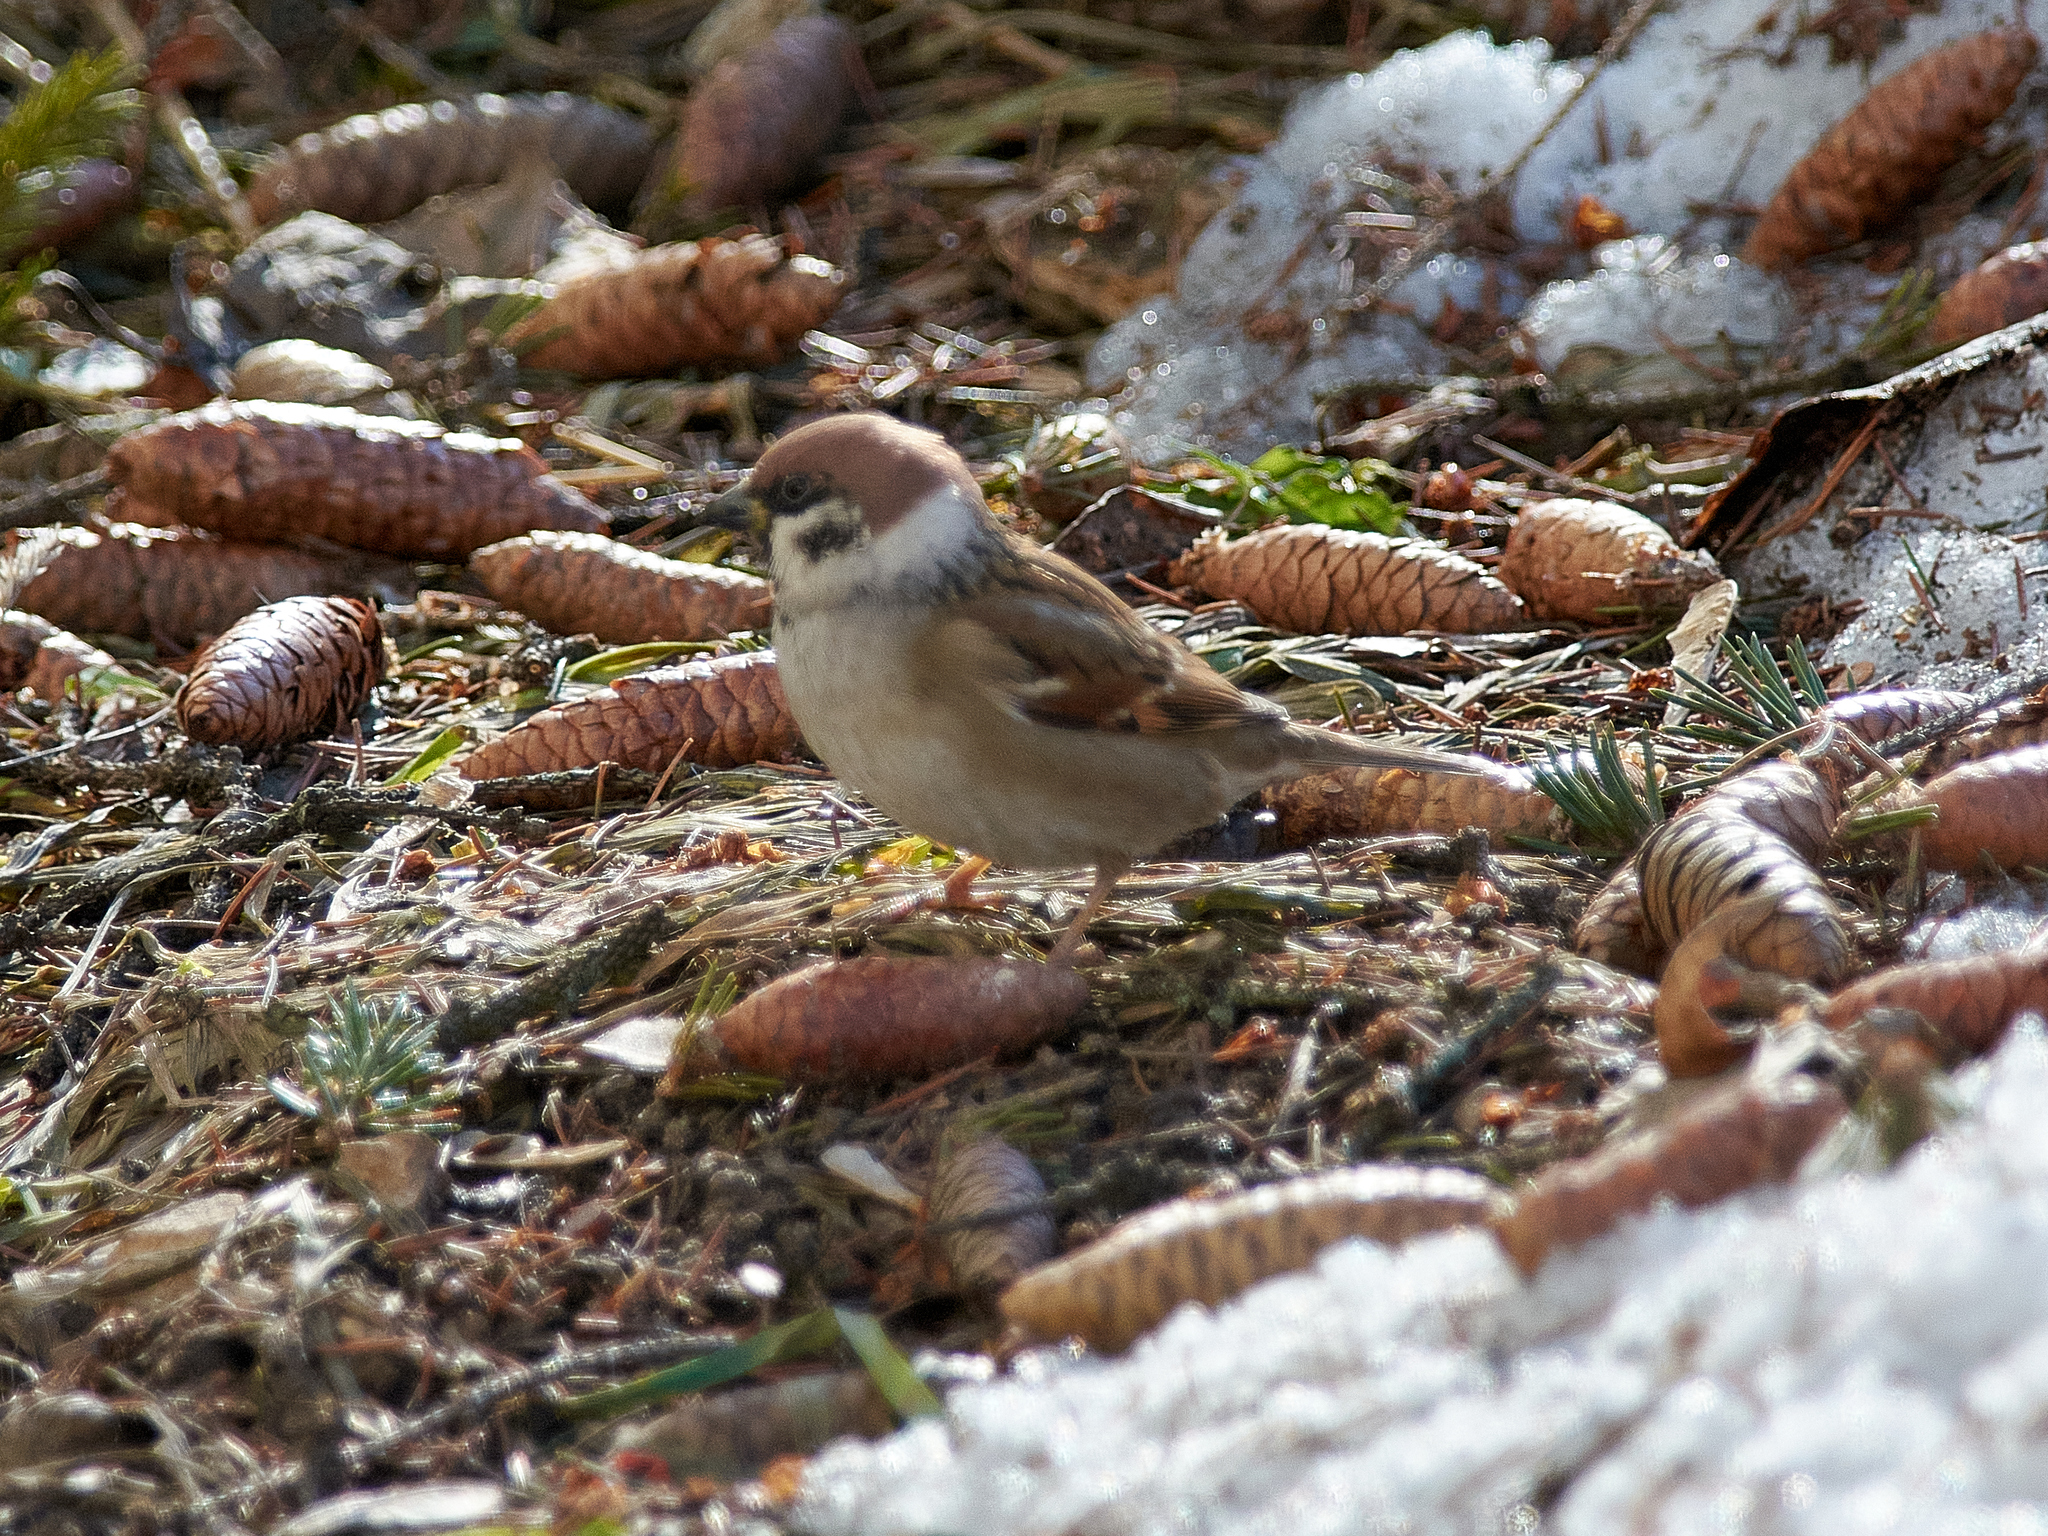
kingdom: Animalia
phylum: Chordata
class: Aves
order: Passeriformes
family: Passeridae
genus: Passer
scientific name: Passer montanus
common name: Eurasian tree sparrow
